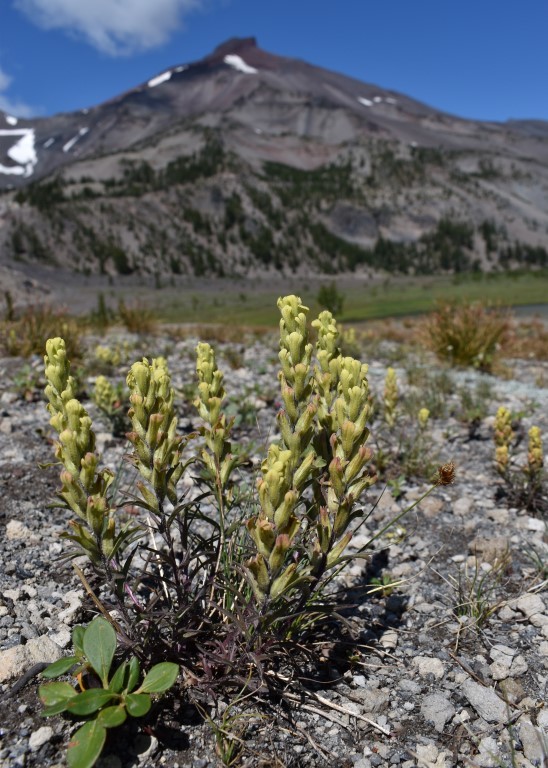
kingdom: Plantae
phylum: Tracheophyta
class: Magnoliopsida
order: Lamiales
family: Orobanchaceae
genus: Castilleja
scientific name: Castilleja arachnoidea
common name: Cobwebby indian paintbrush
